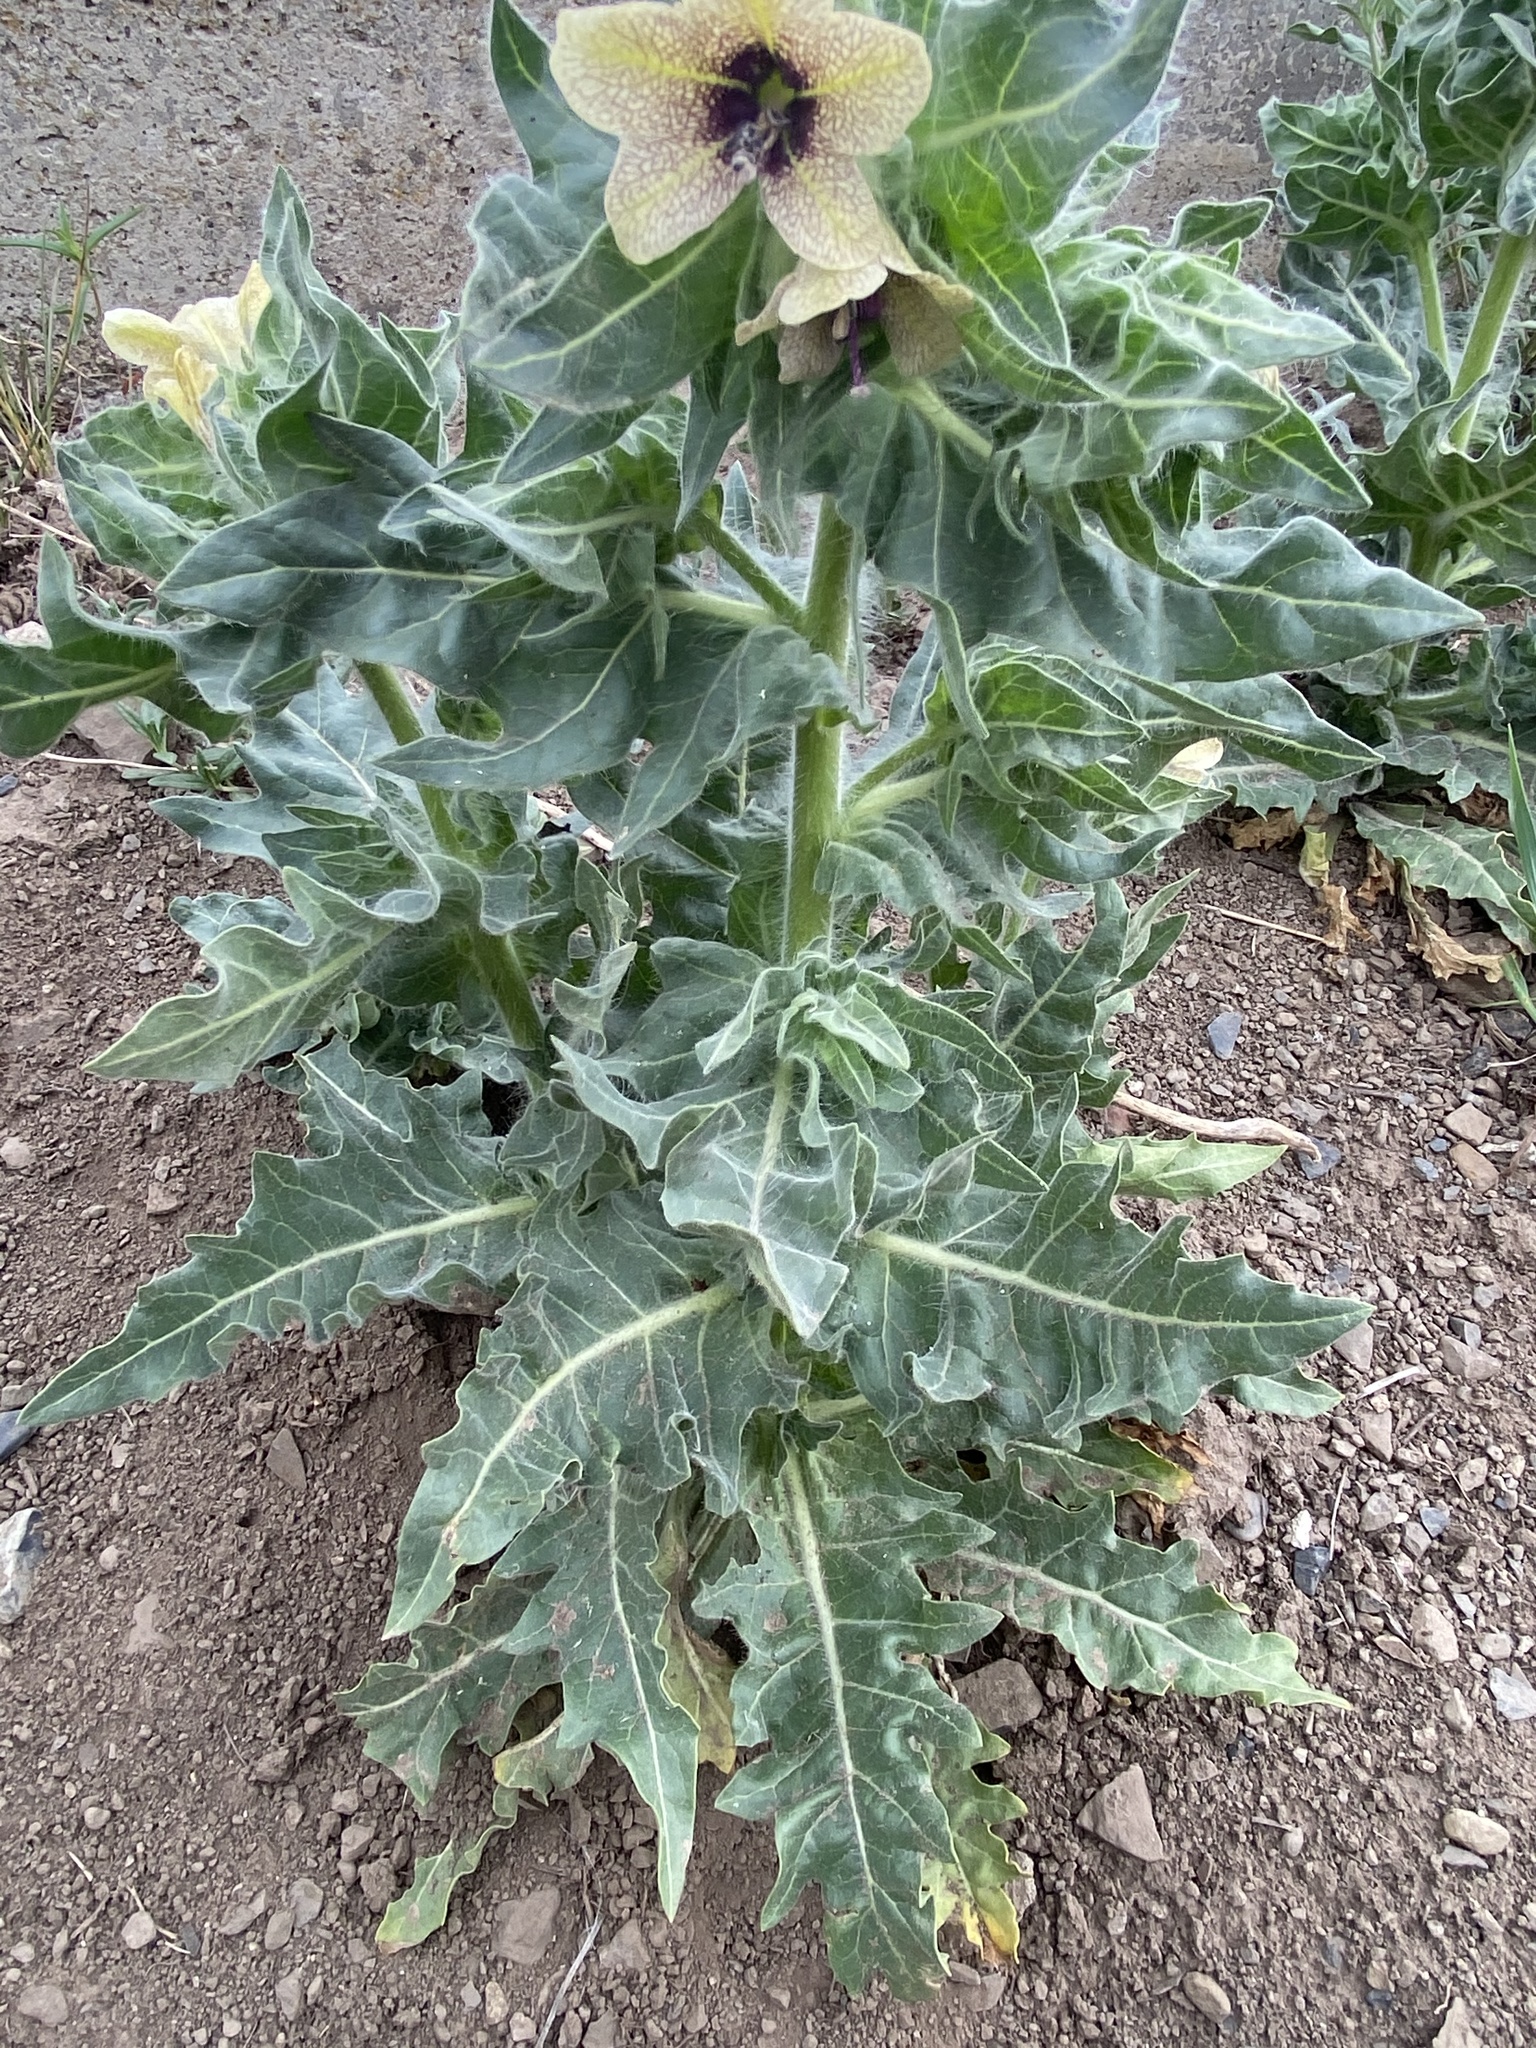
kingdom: Plantae
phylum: Tracheophyta
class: Magnoliopsida
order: Solanales
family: Solanaceae
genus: Hyoscyamus
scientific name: Hyoscyamus niger
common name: Henbane
